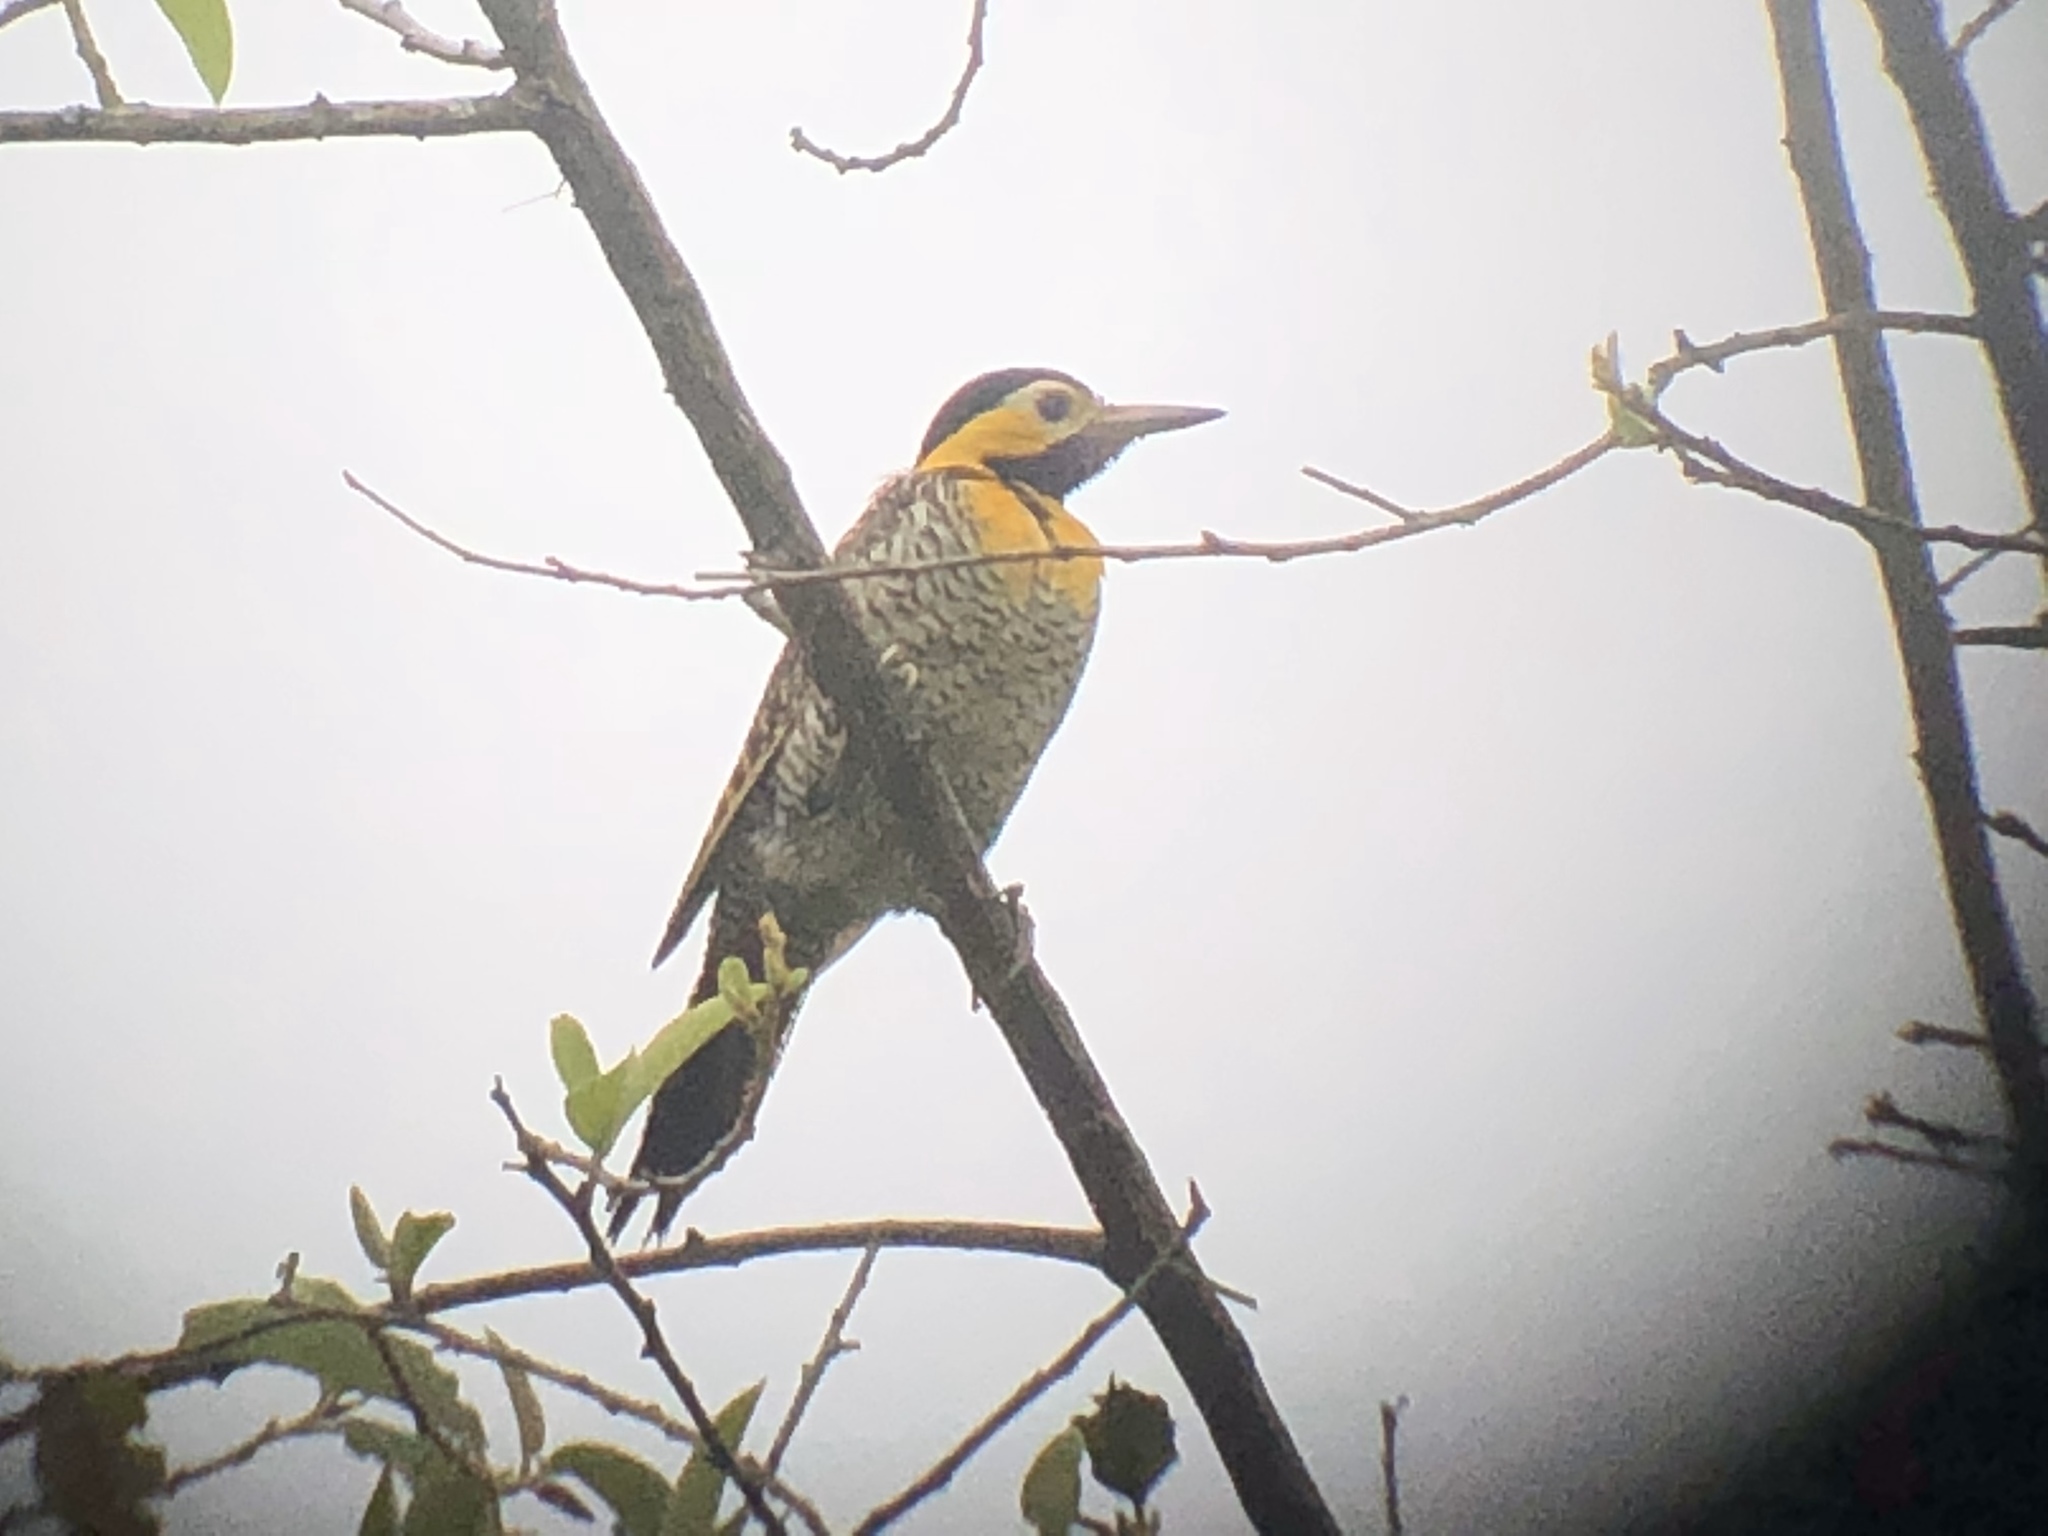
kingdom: Animalia
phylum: Chordata
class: Aves
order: Piciformes
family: Picidae
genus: Colaptes
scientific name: Colaptes campestris
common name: Campo flicker
